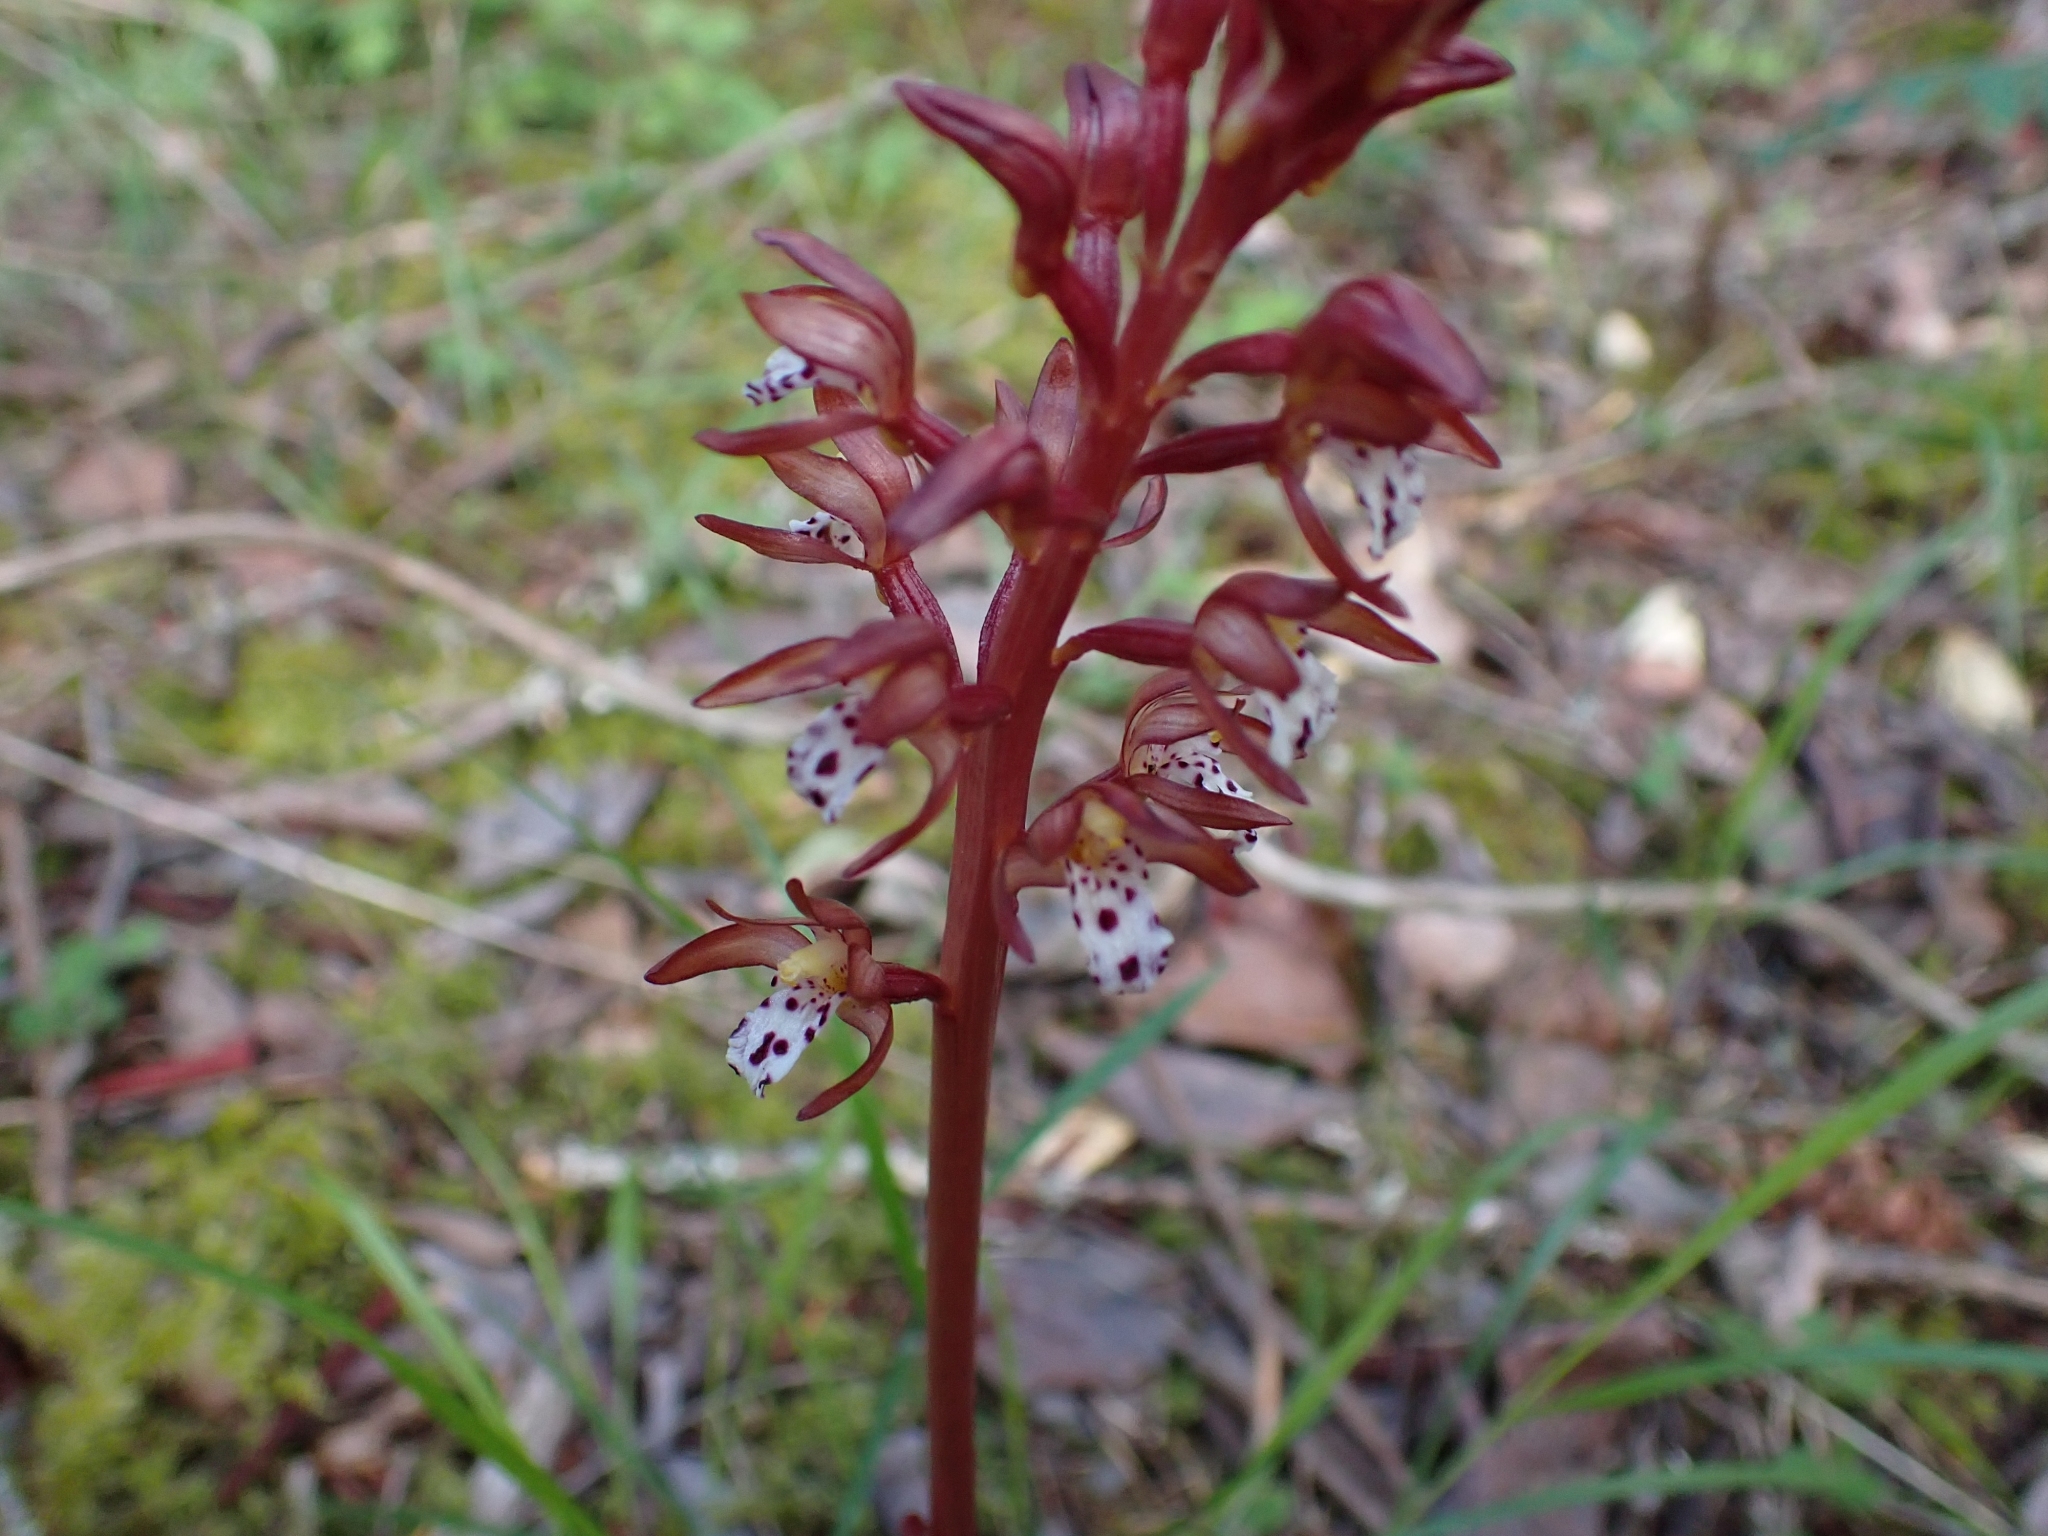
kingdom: Plantae
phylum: Tracheophyta
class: Liliopsida
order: Asparagales
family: Orchidaceae
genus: Corallorhiza
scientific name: Corallorhiza maculata
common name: Spotted coralroot
